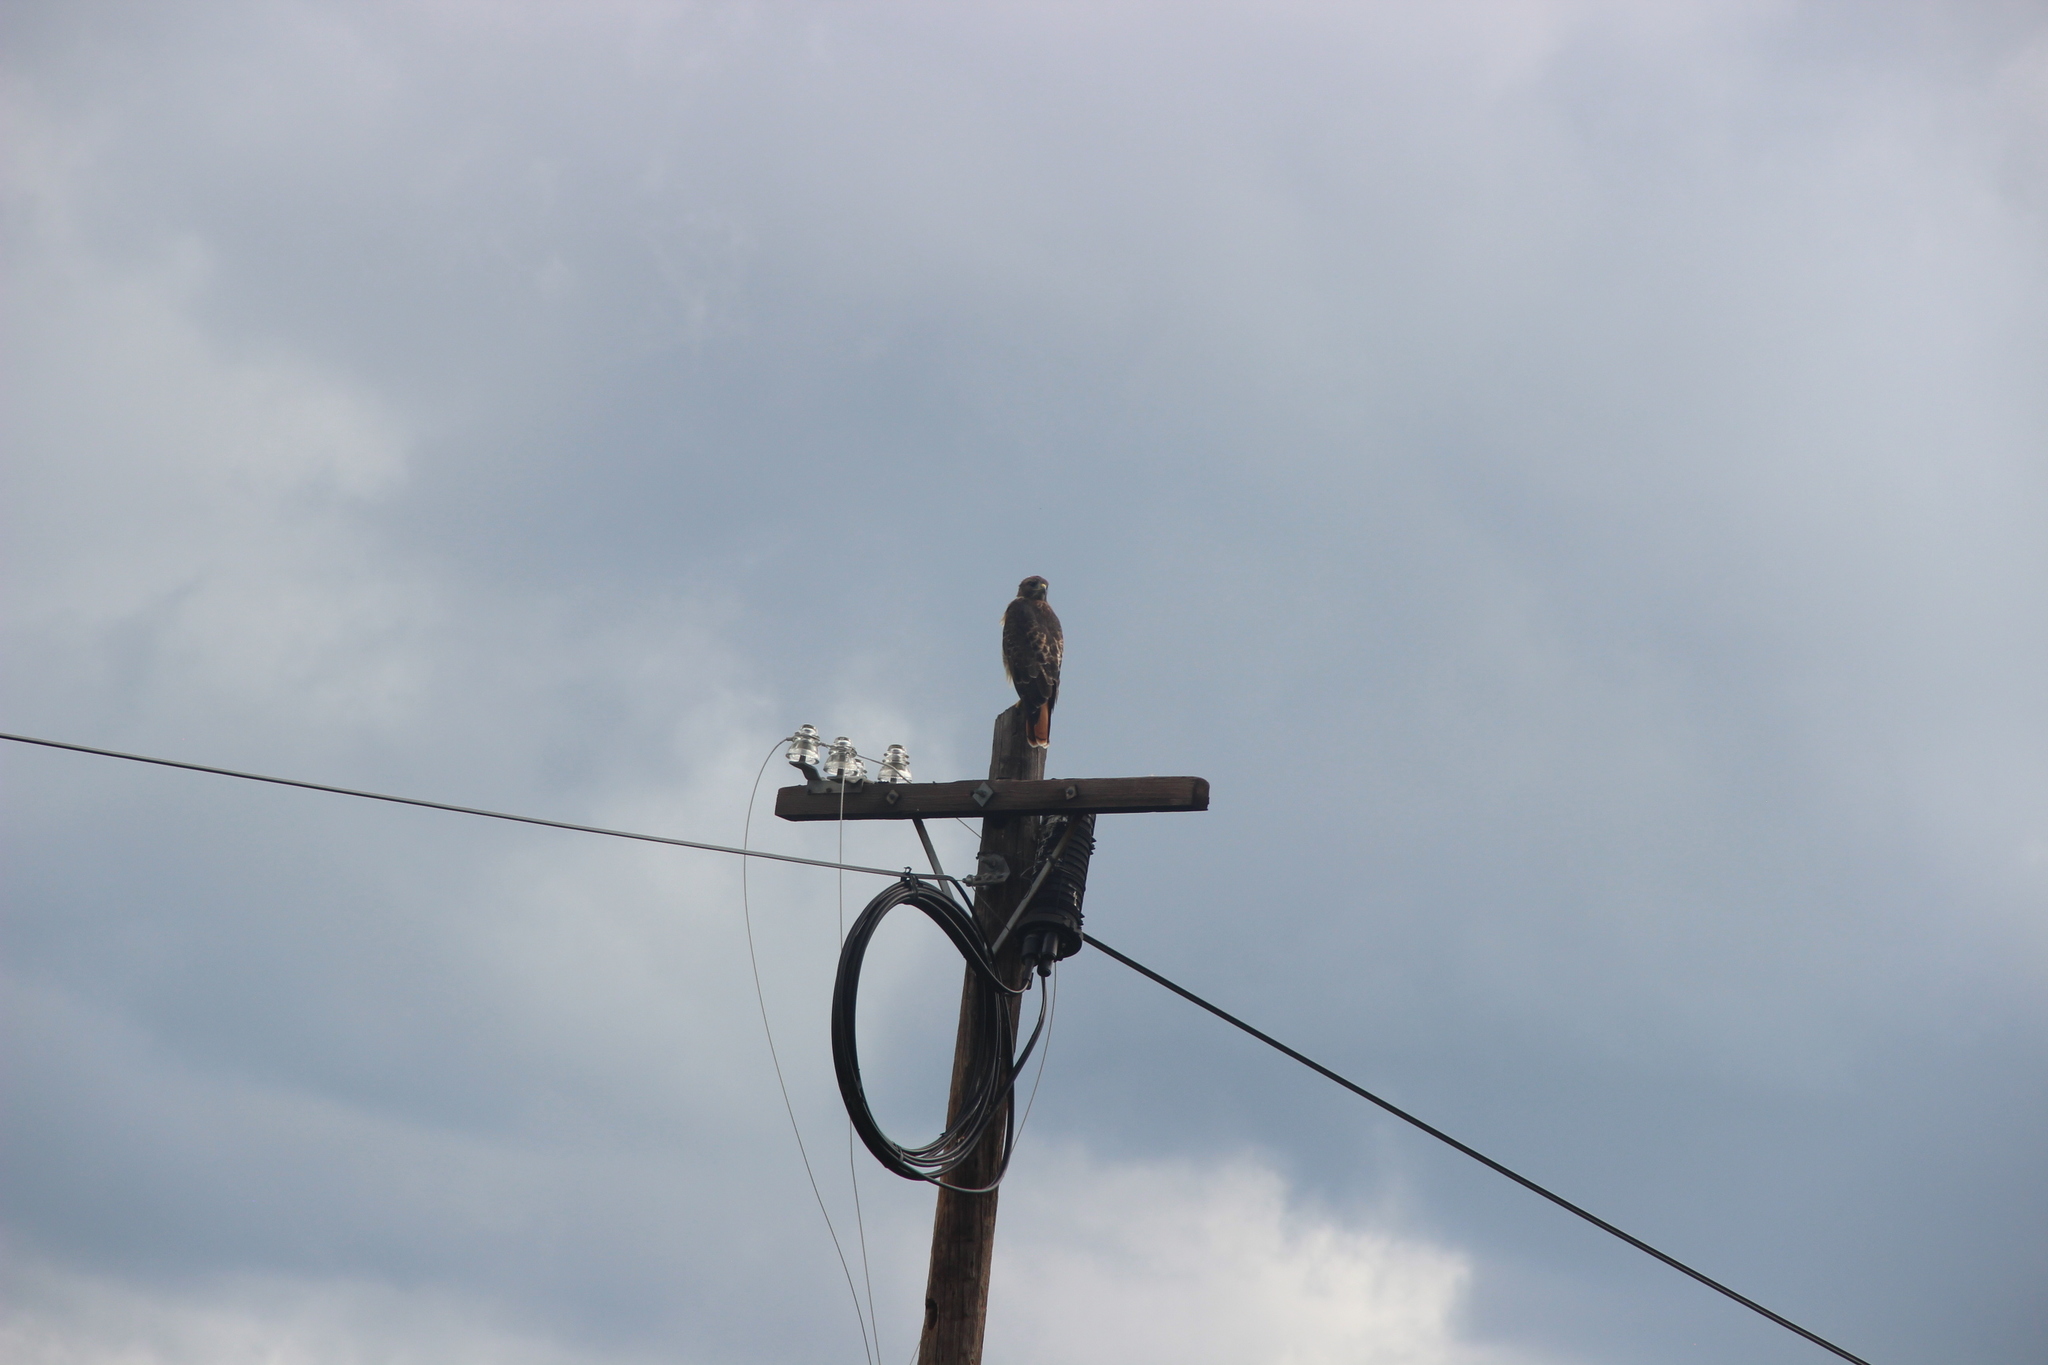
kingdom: Animalia
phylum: Chordata
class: Aves
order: Accipitriformes
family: Accipitridae
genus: Buteo
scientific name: Buteo jamaicensis
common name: Red-tailed hawk
